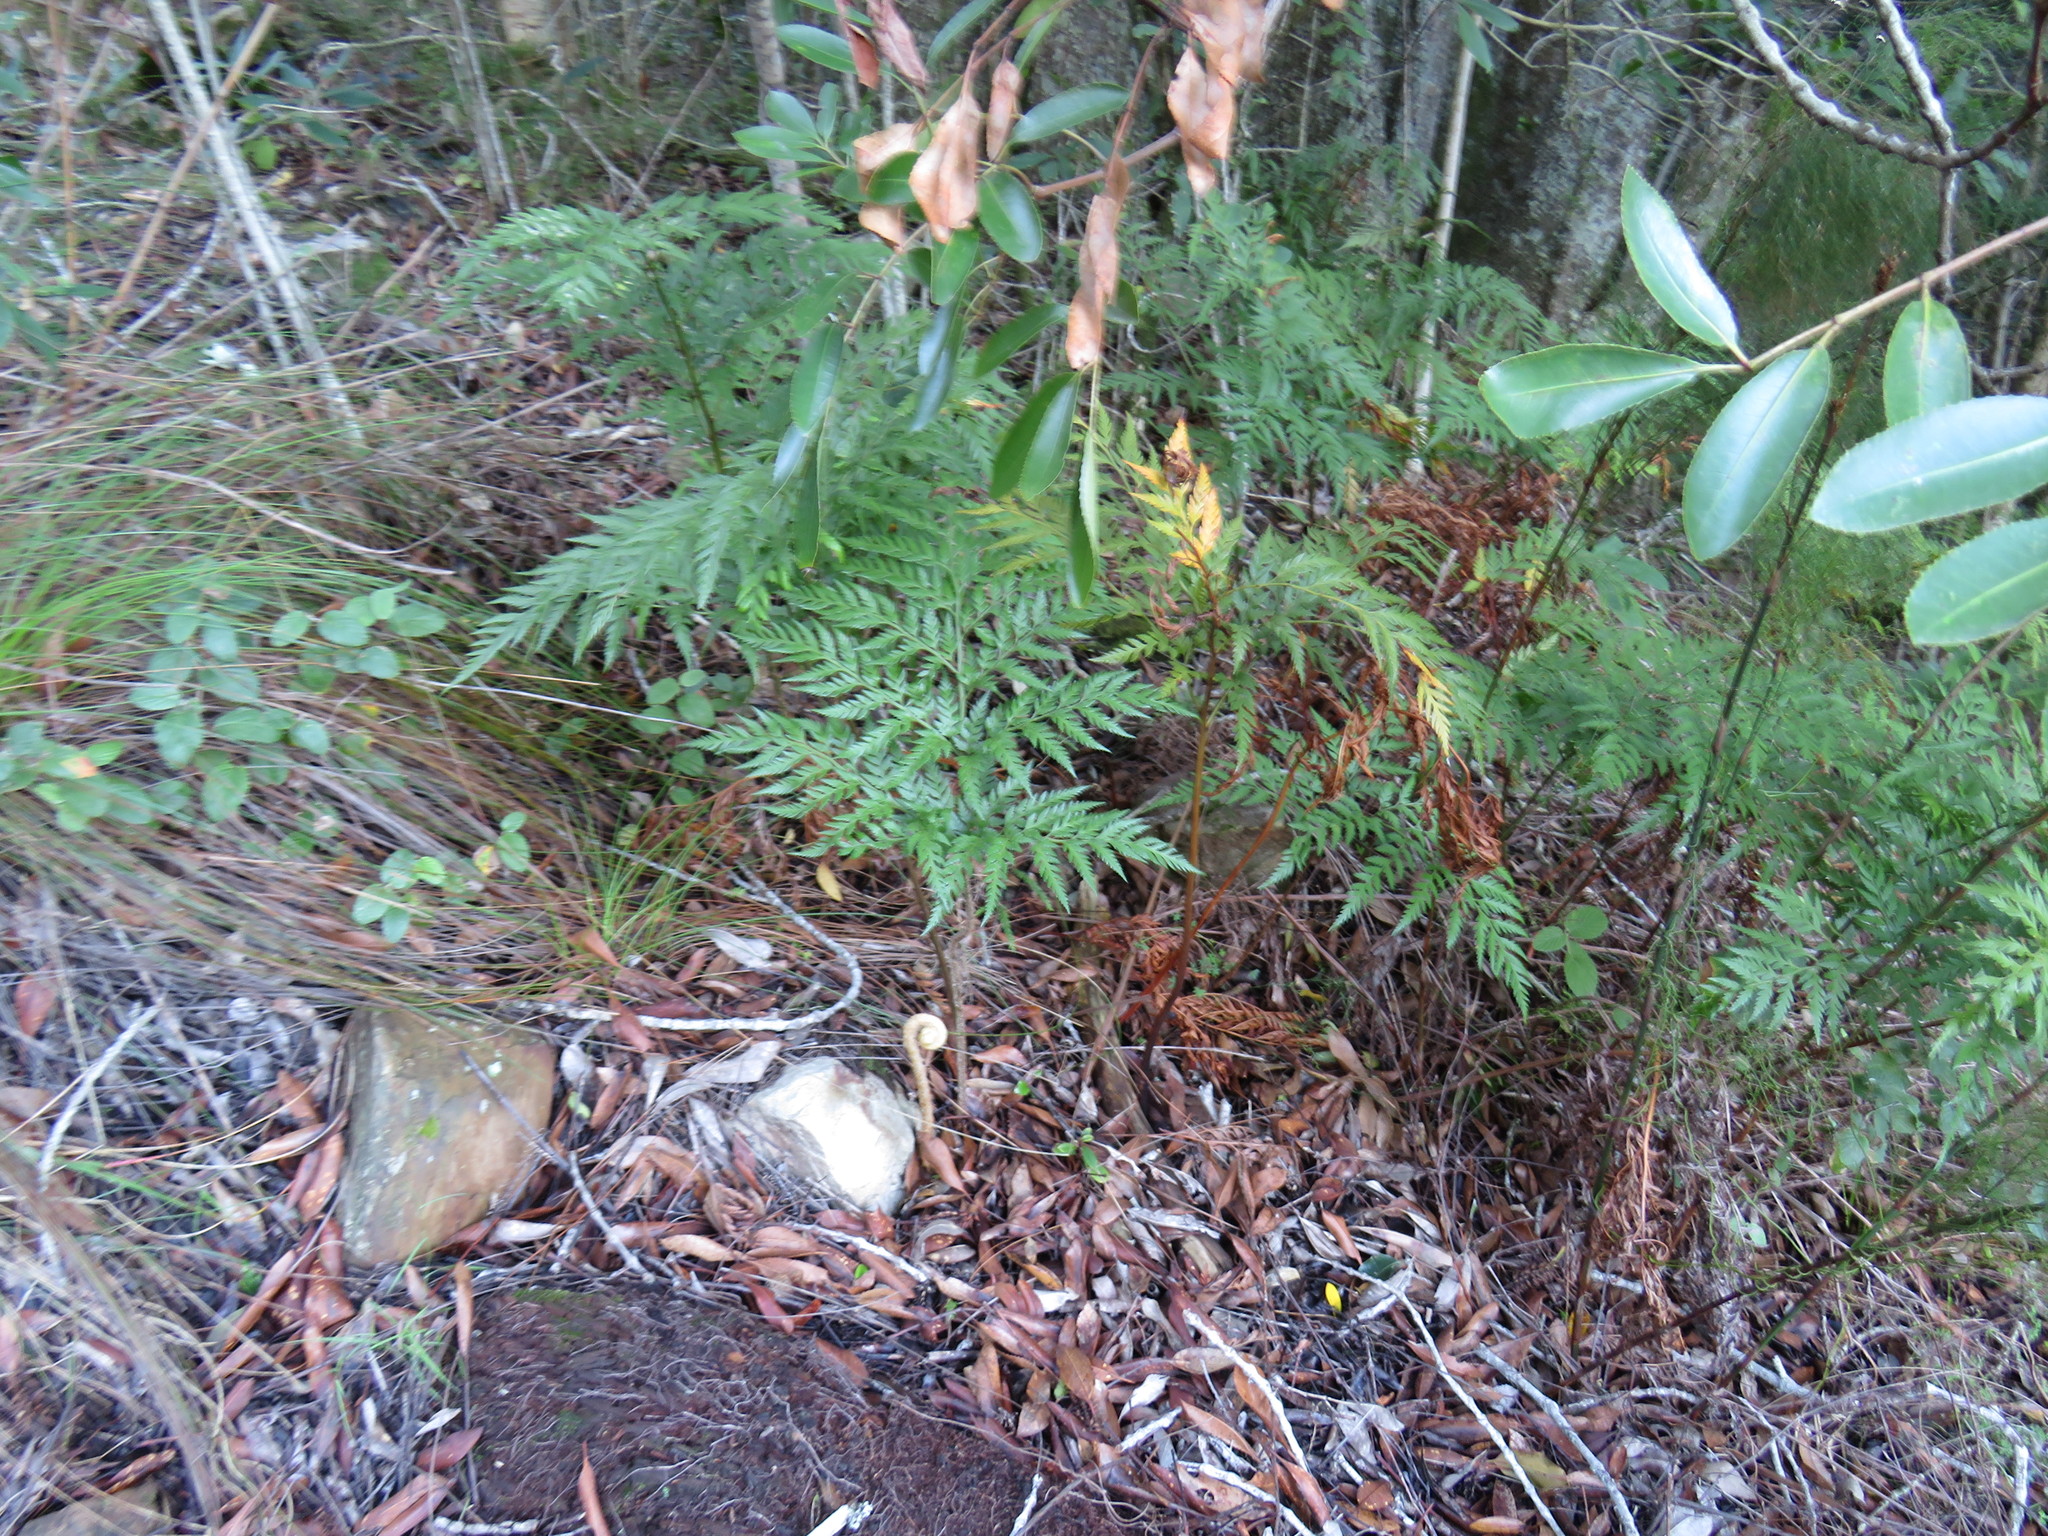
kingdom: Plantae
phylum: Tracheophyta
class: Polypodiopsida
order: Polypodiales
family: Dryopteridaceae
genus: Rumohra
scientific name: Rumohra adiantiformis
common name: Leather fern
